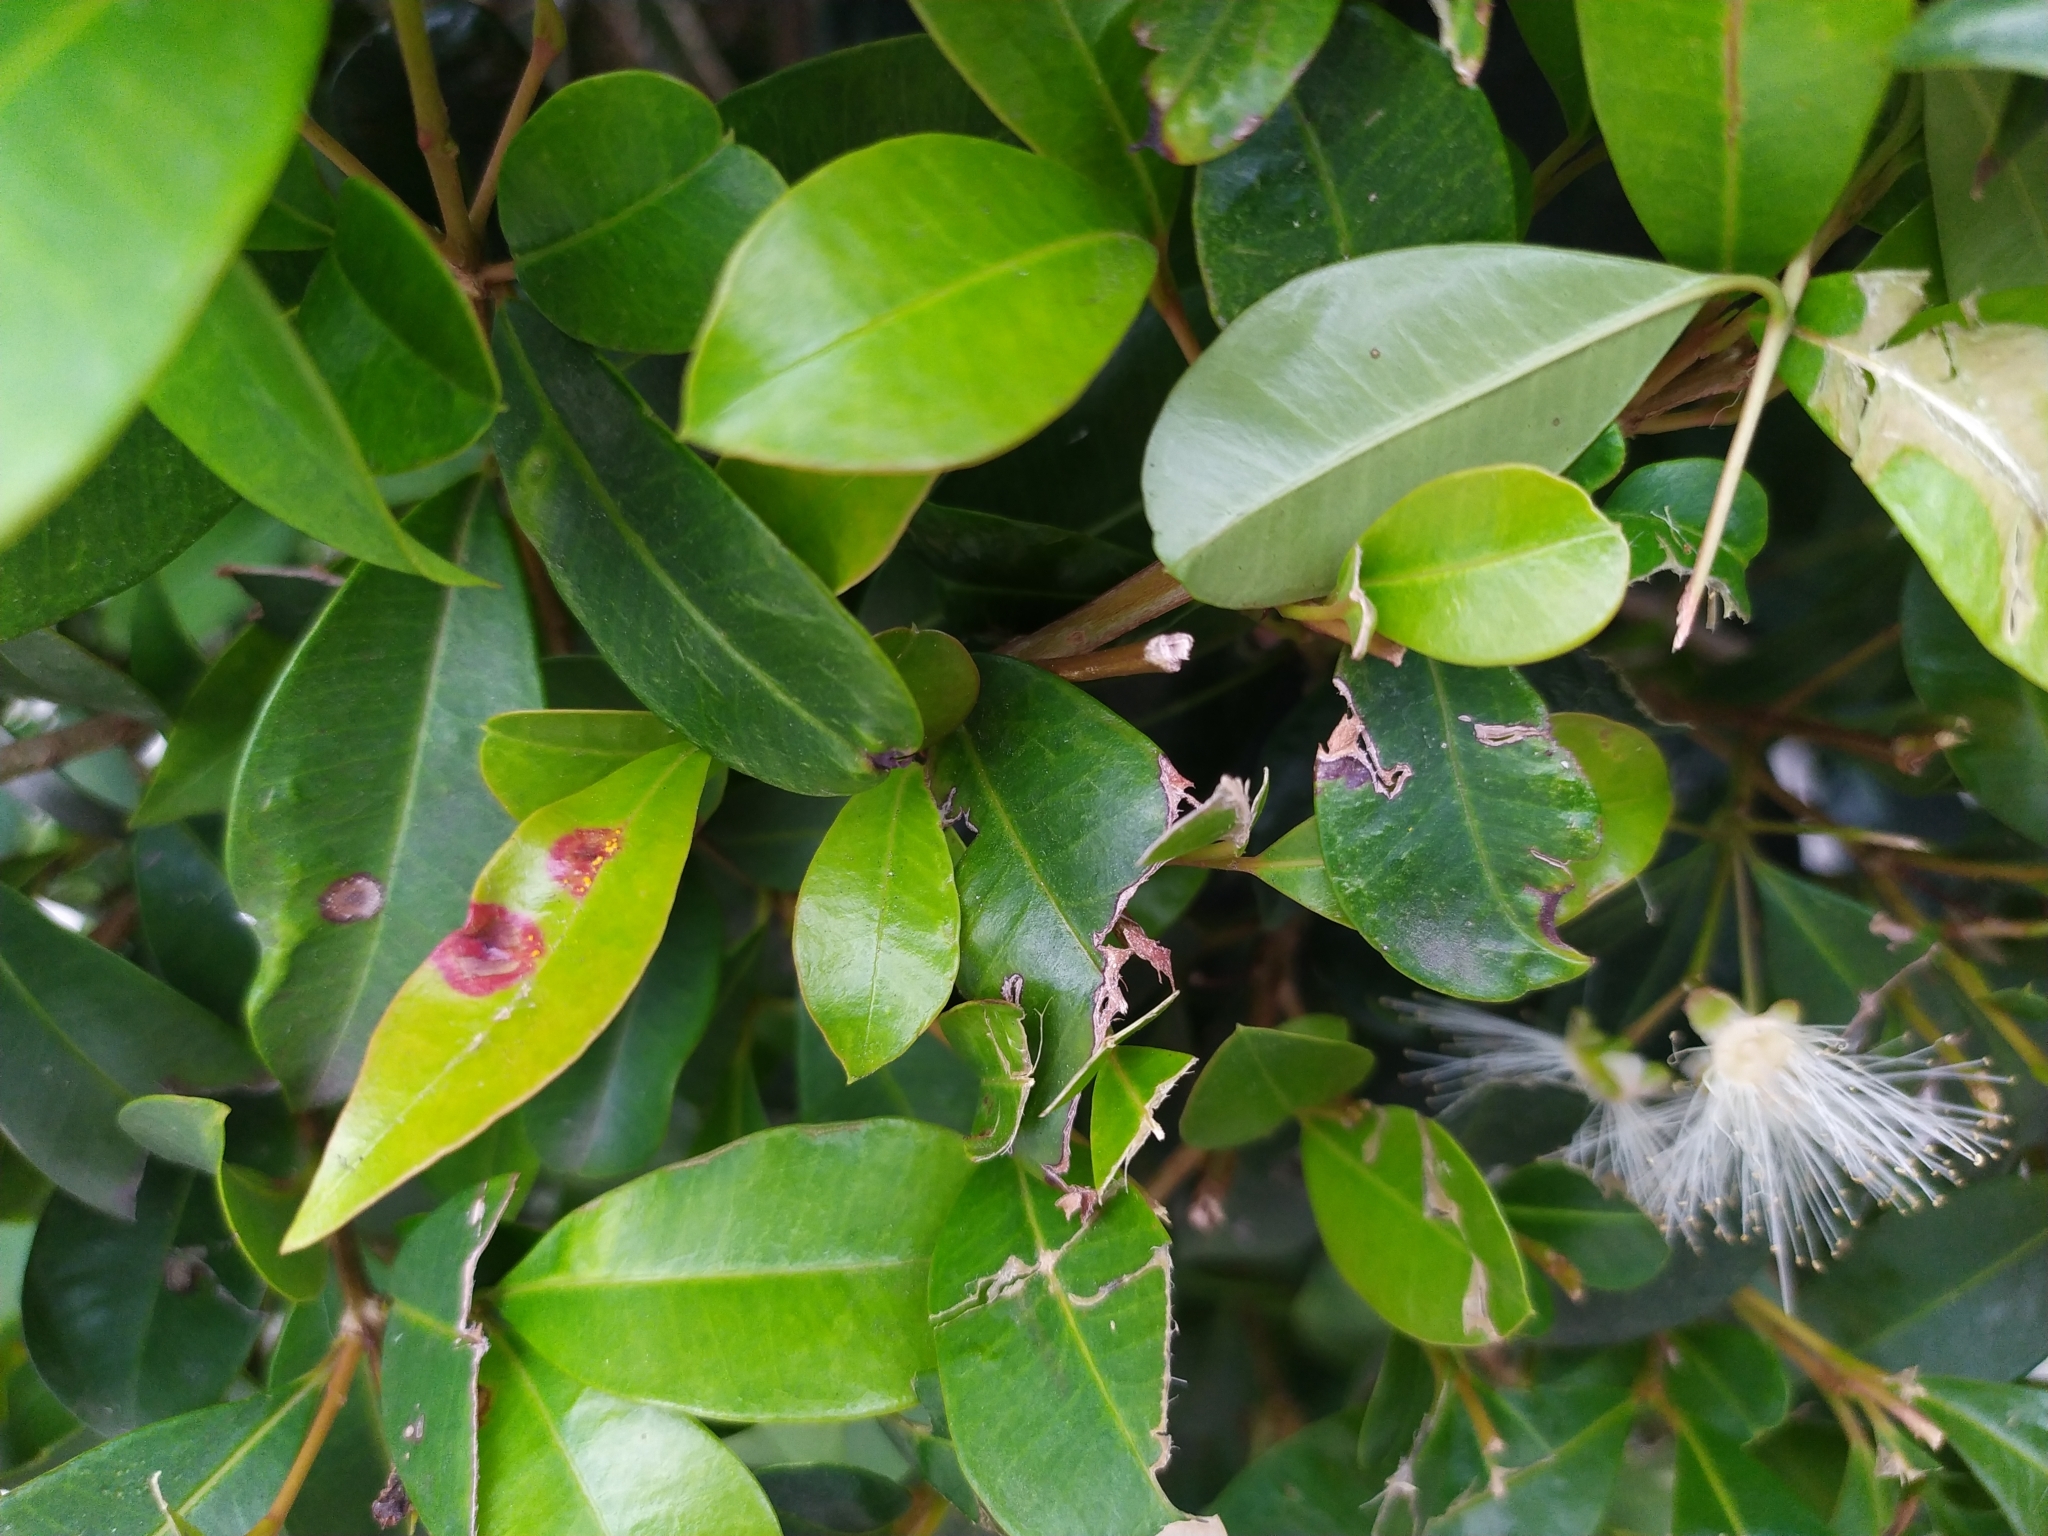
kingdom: Fungi
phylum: Basidiomycota
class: Pucciniomycetes
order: Pucciniales
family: Sphaerophragmiaceae
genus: Austropuccinia
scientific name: Austropuccinia psidii
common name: Myrtle rust
